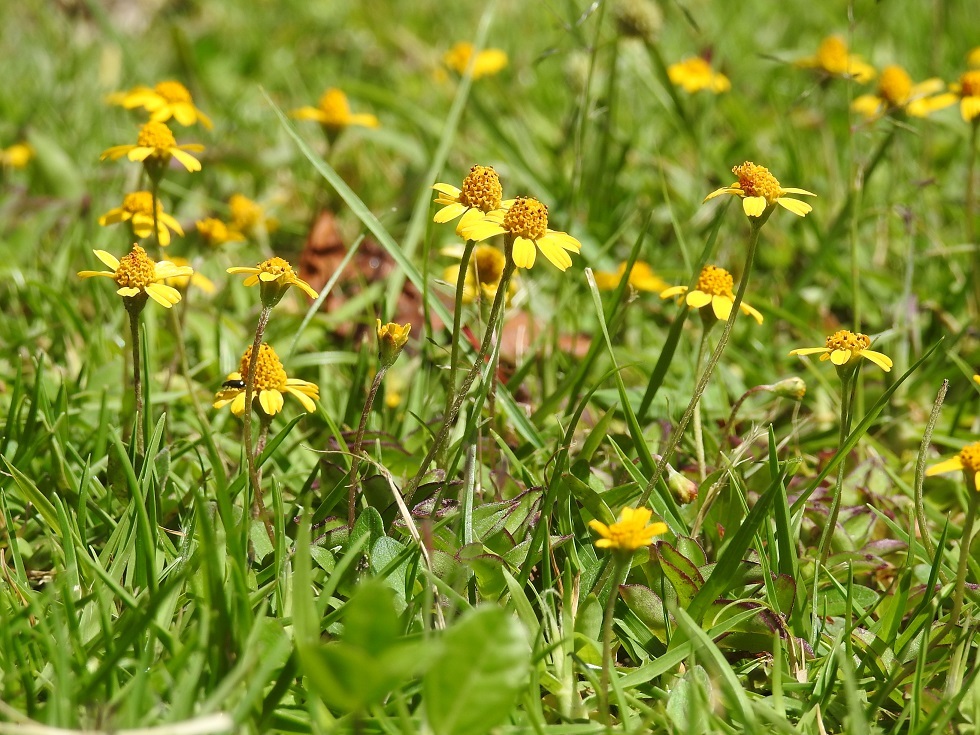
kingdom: Plantae
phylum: Tracheophyta
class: Magnoliopsida
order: Asterales
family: Asteraceae
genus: Acmella
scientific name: Acmella repens
